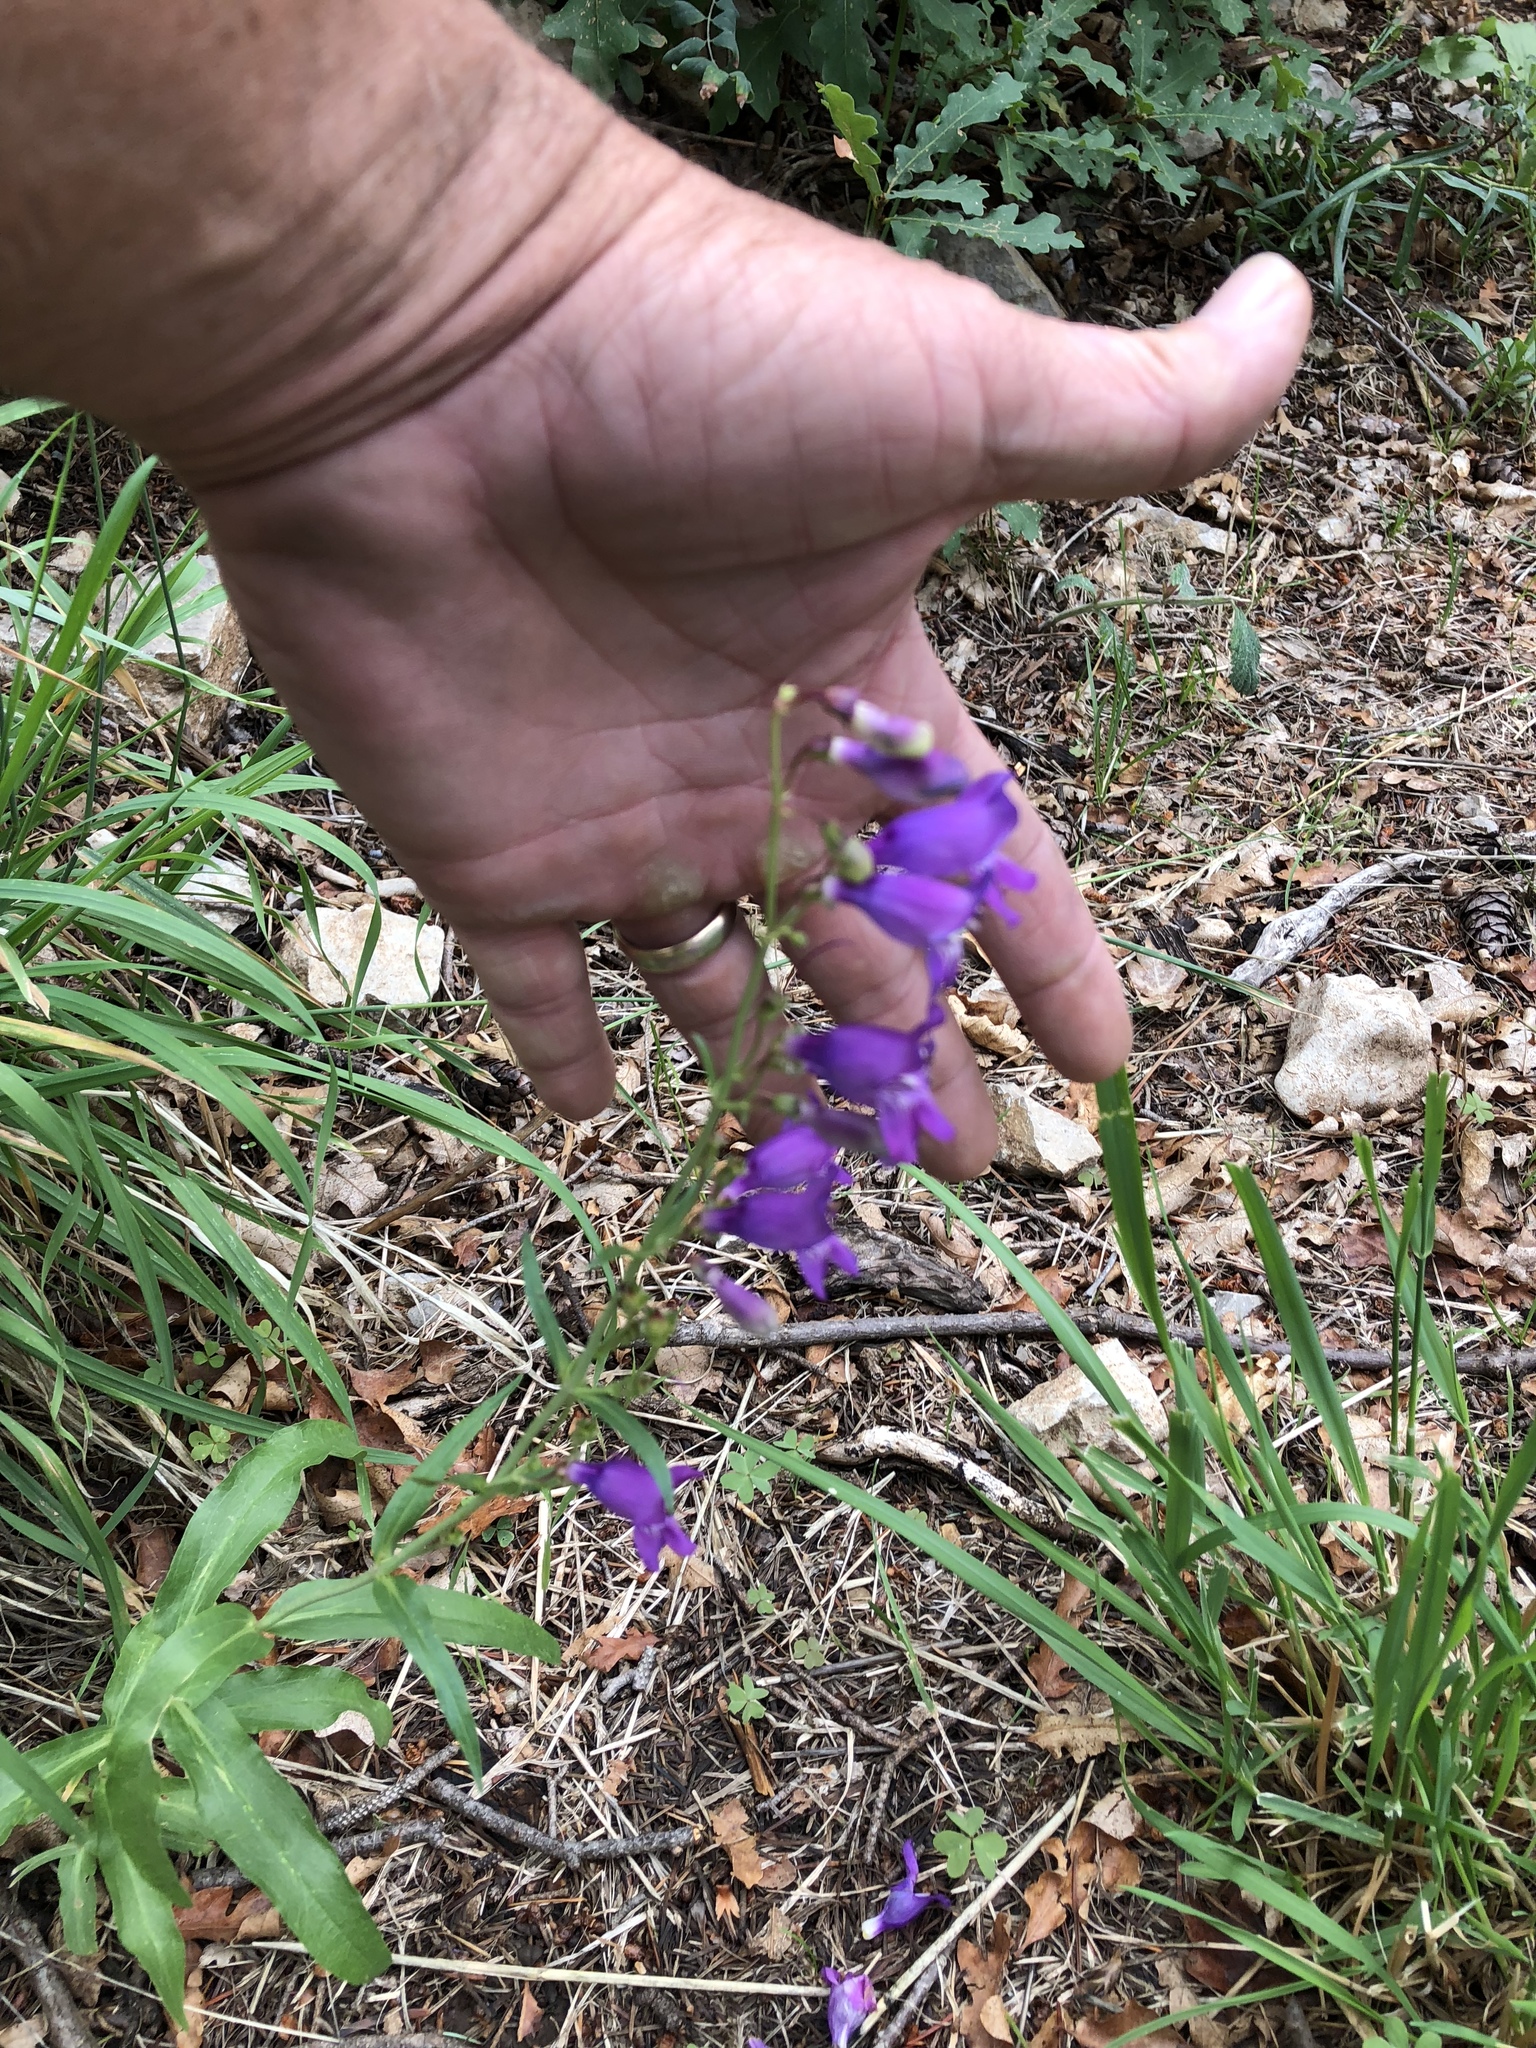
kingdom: Plantae
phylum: Tracheophyta
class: Magnoliopsida
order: Lamiales
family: Plantaginaceae
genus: Penstemon
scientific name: Penstemon neomexicanus
